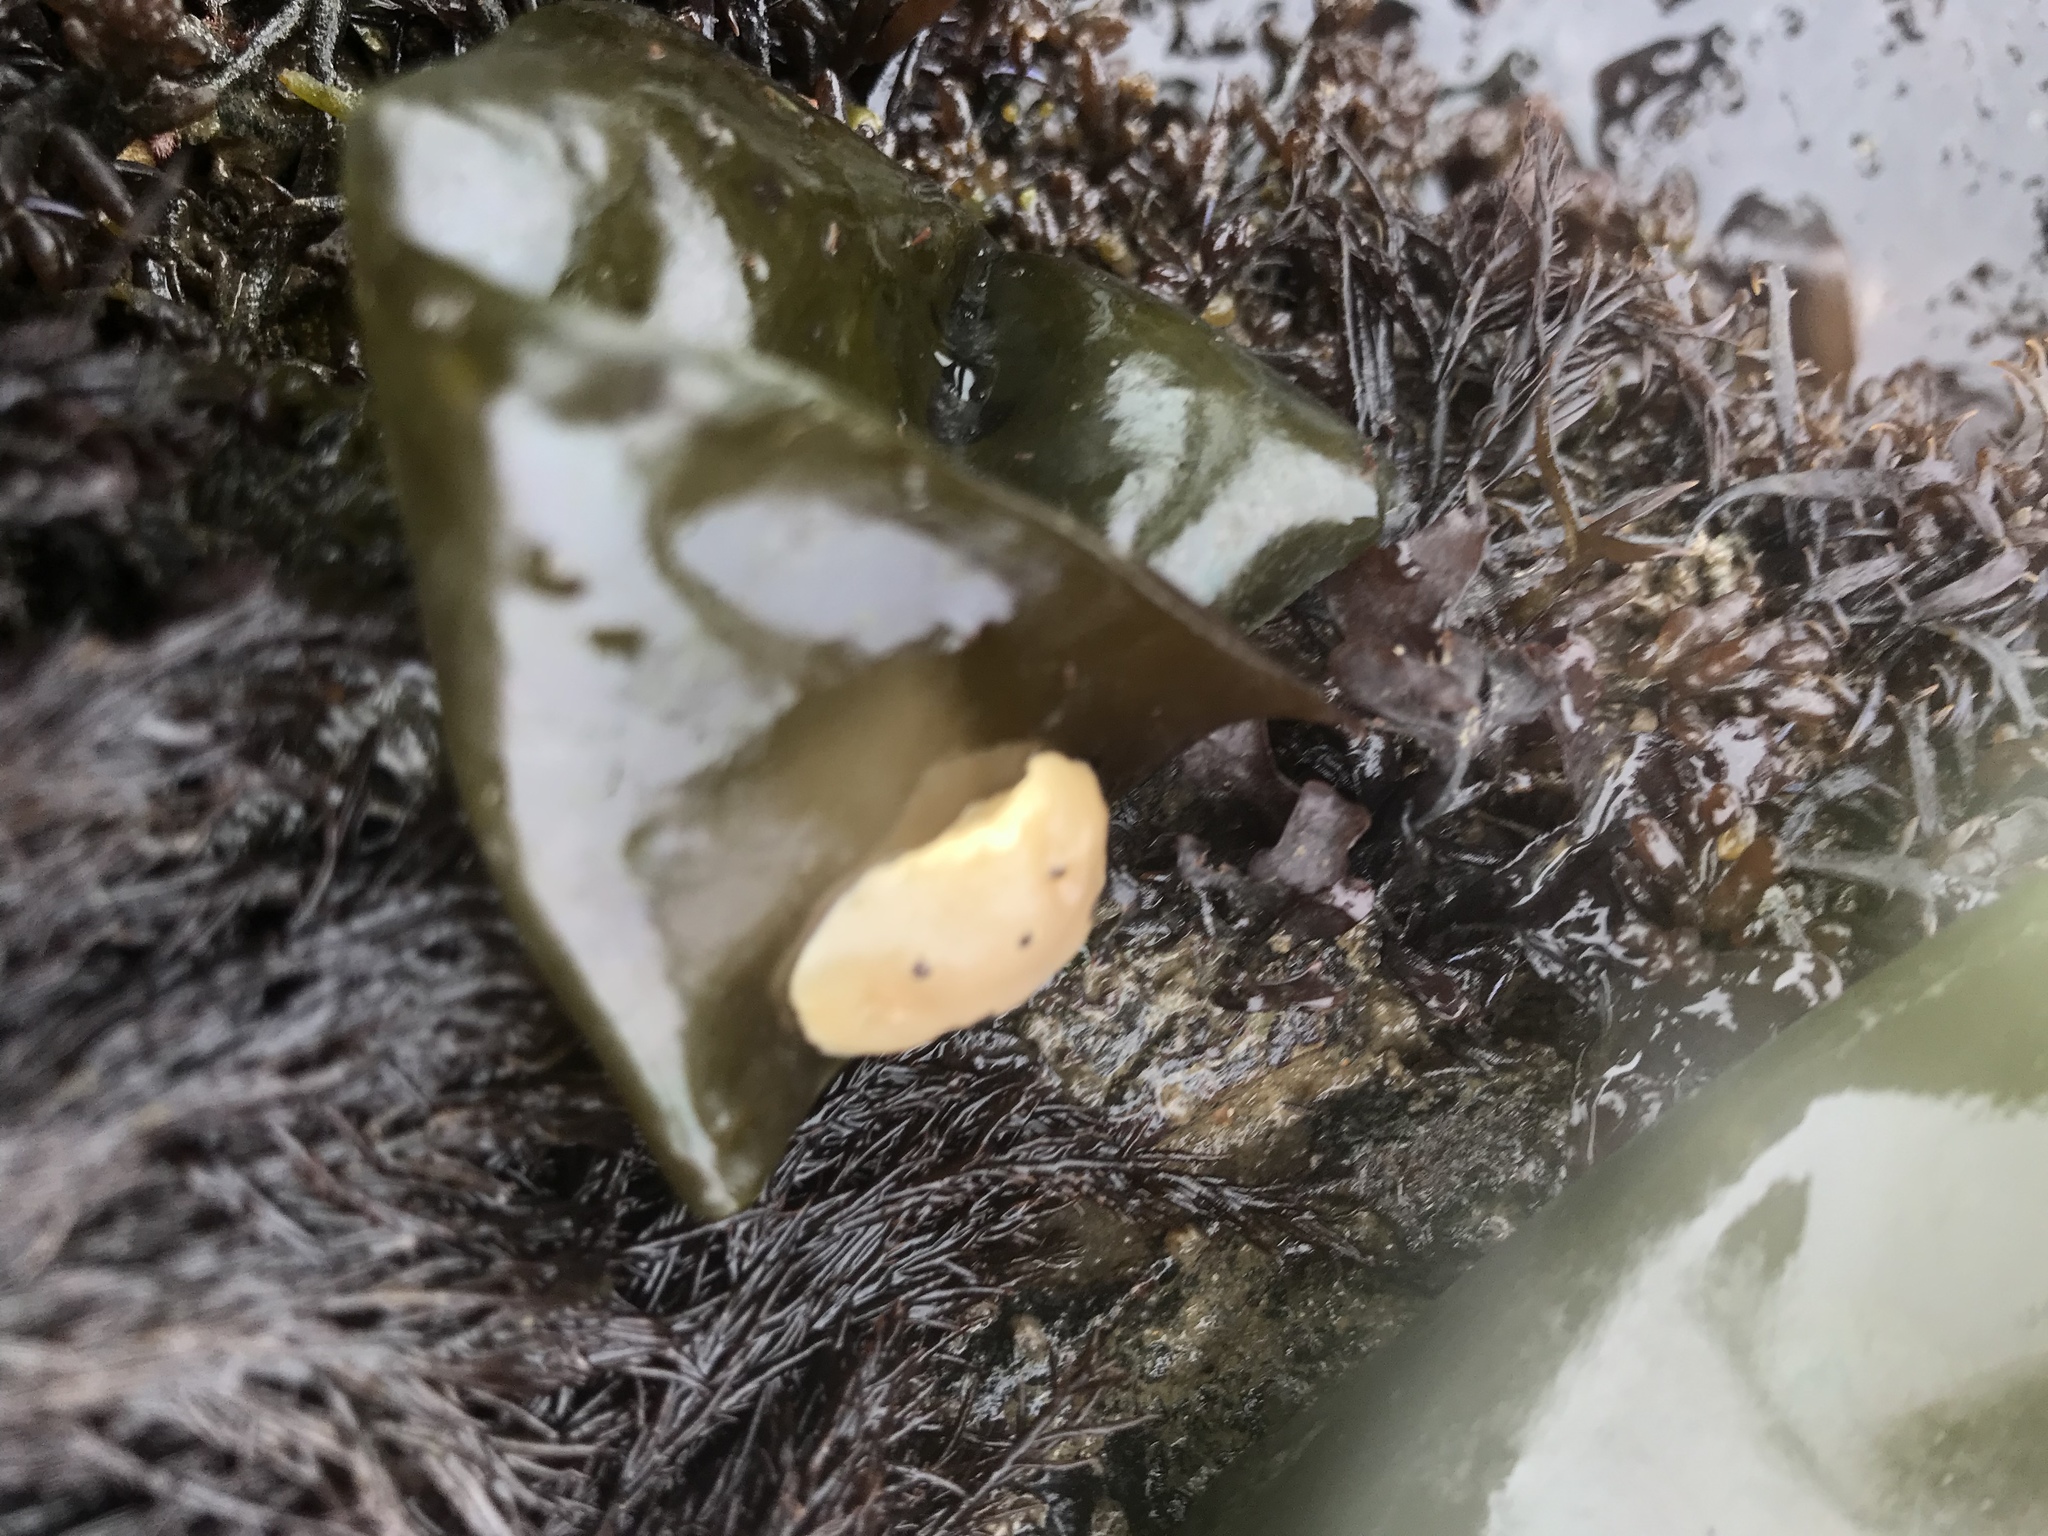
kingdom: Animalia
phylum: Mollusca
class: Gastropoda
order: Nudibranchia
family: Discodorididae
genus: Diaulula
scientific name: Diaulula sandiegensis
